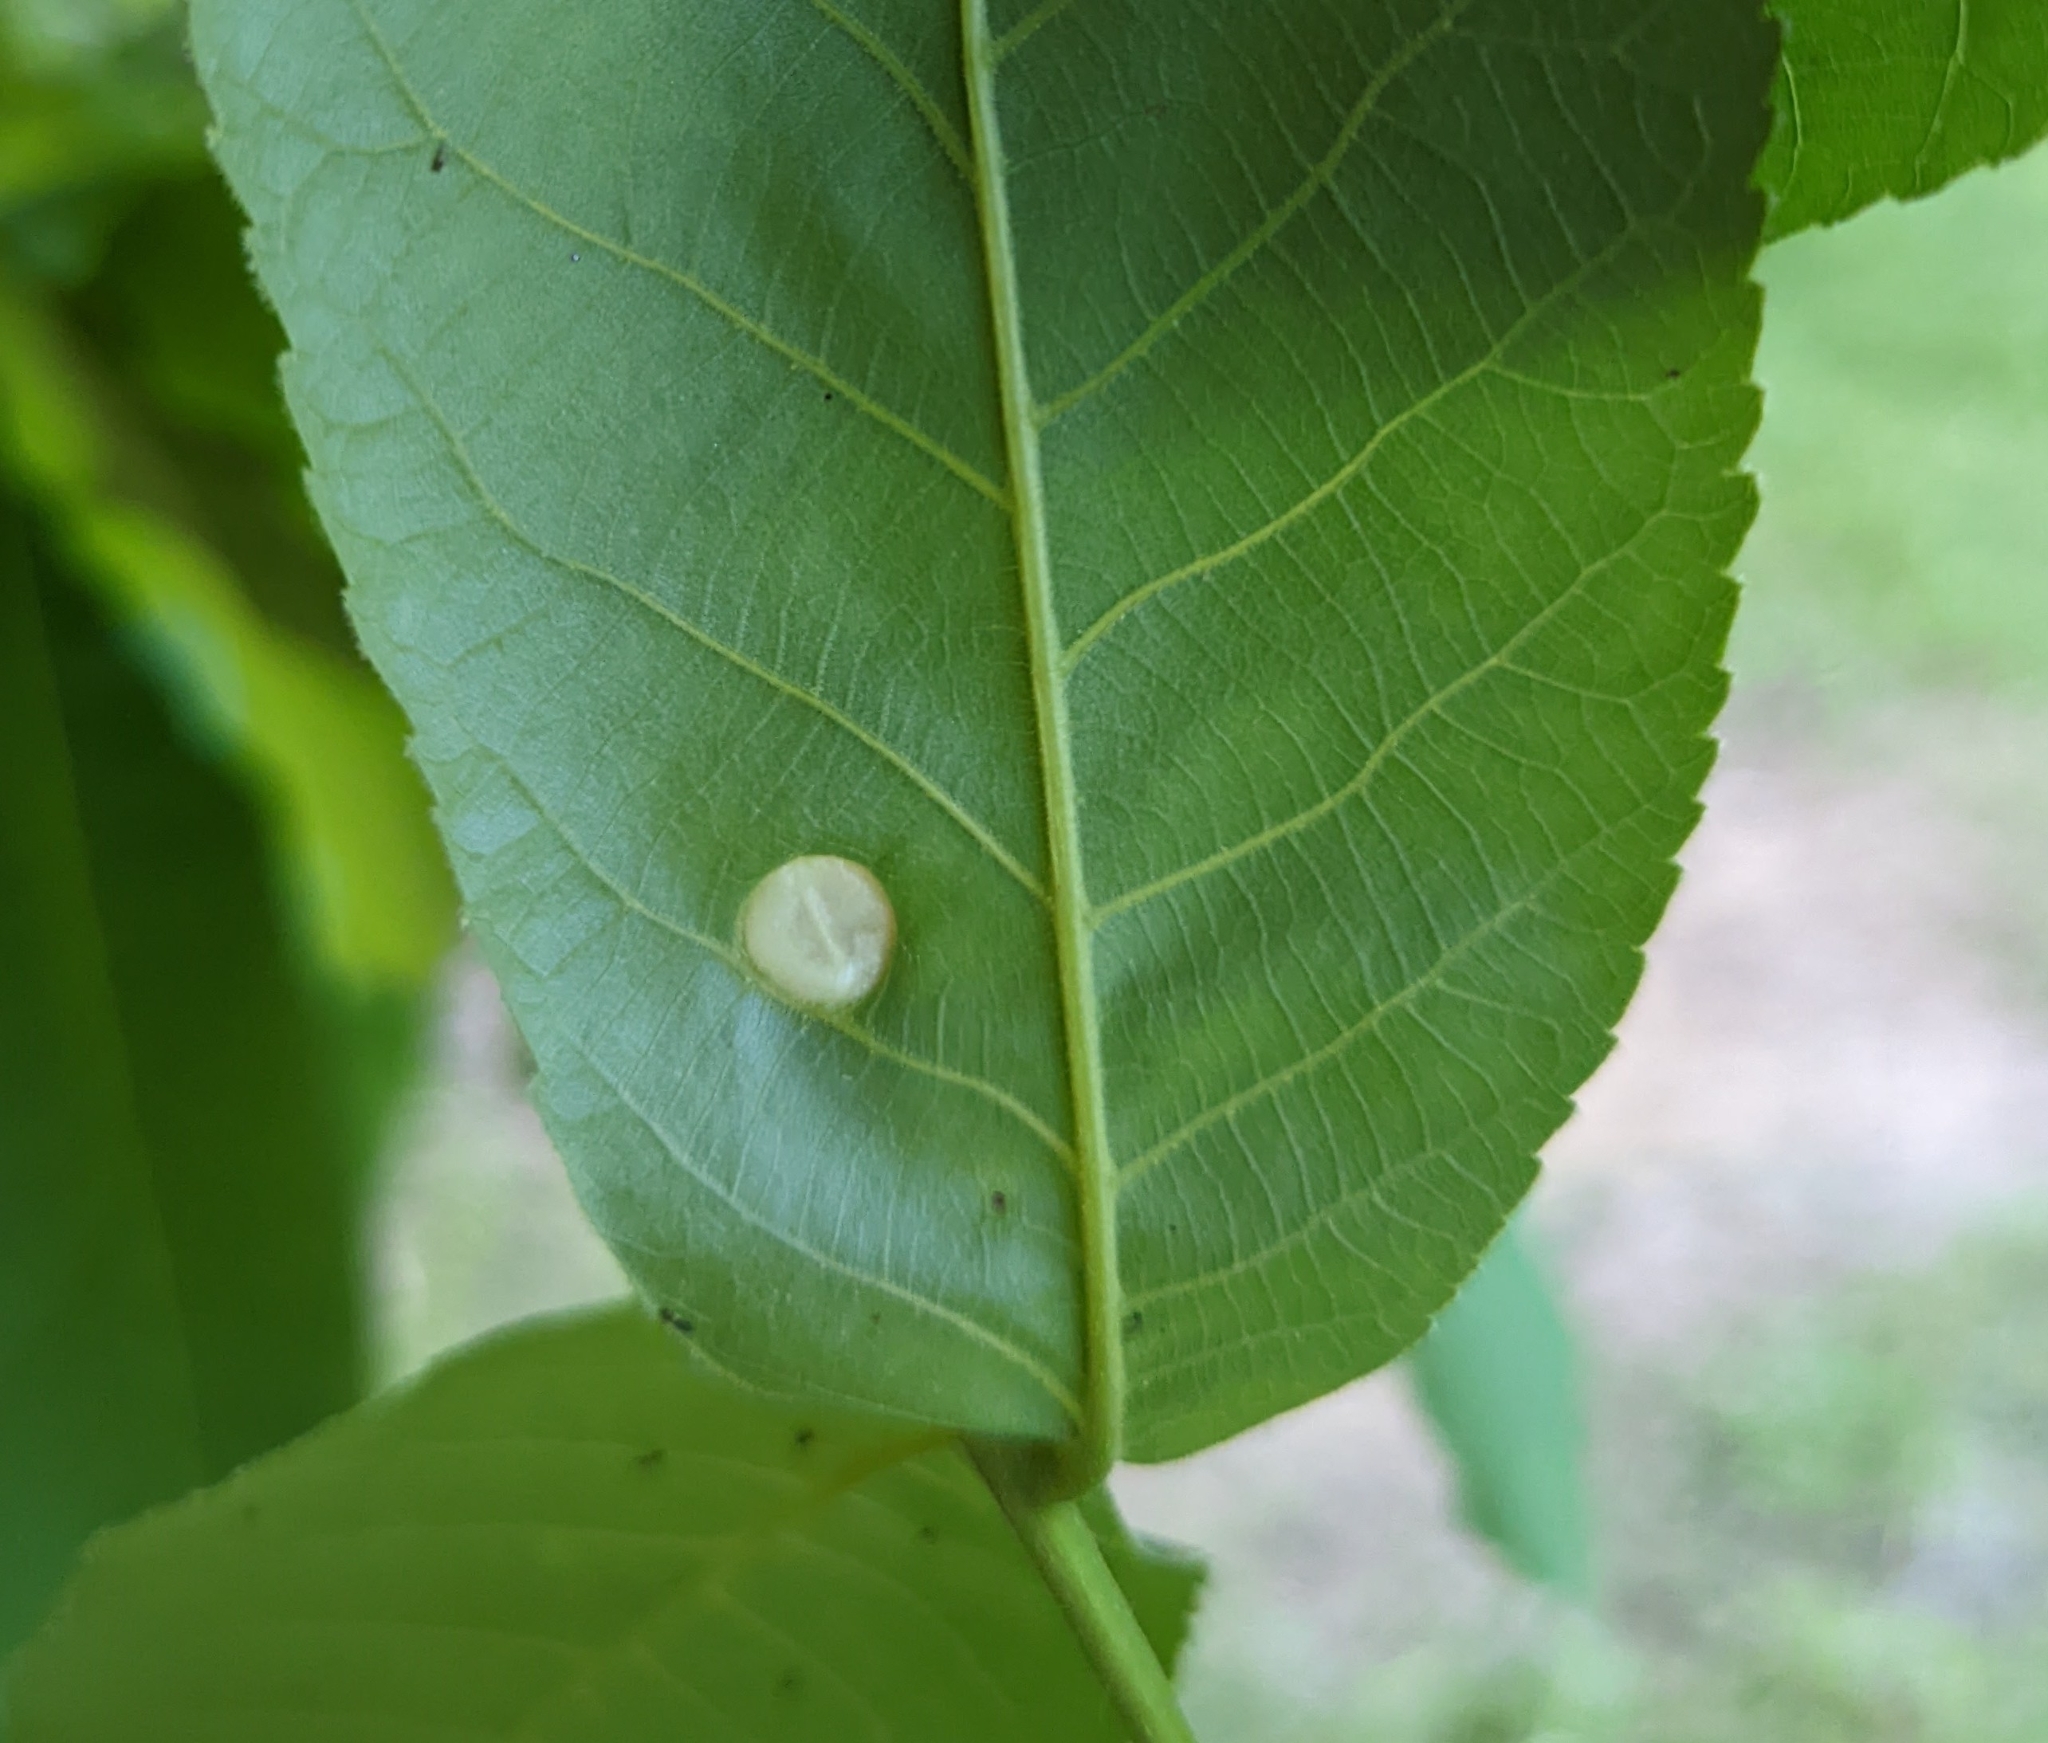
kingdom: Animalia
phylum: Arthropoda
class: Insecta
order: Hemiptera
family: Phylloxeridae
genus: Phylloxera
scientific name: Phylloxera caryae-globuli
